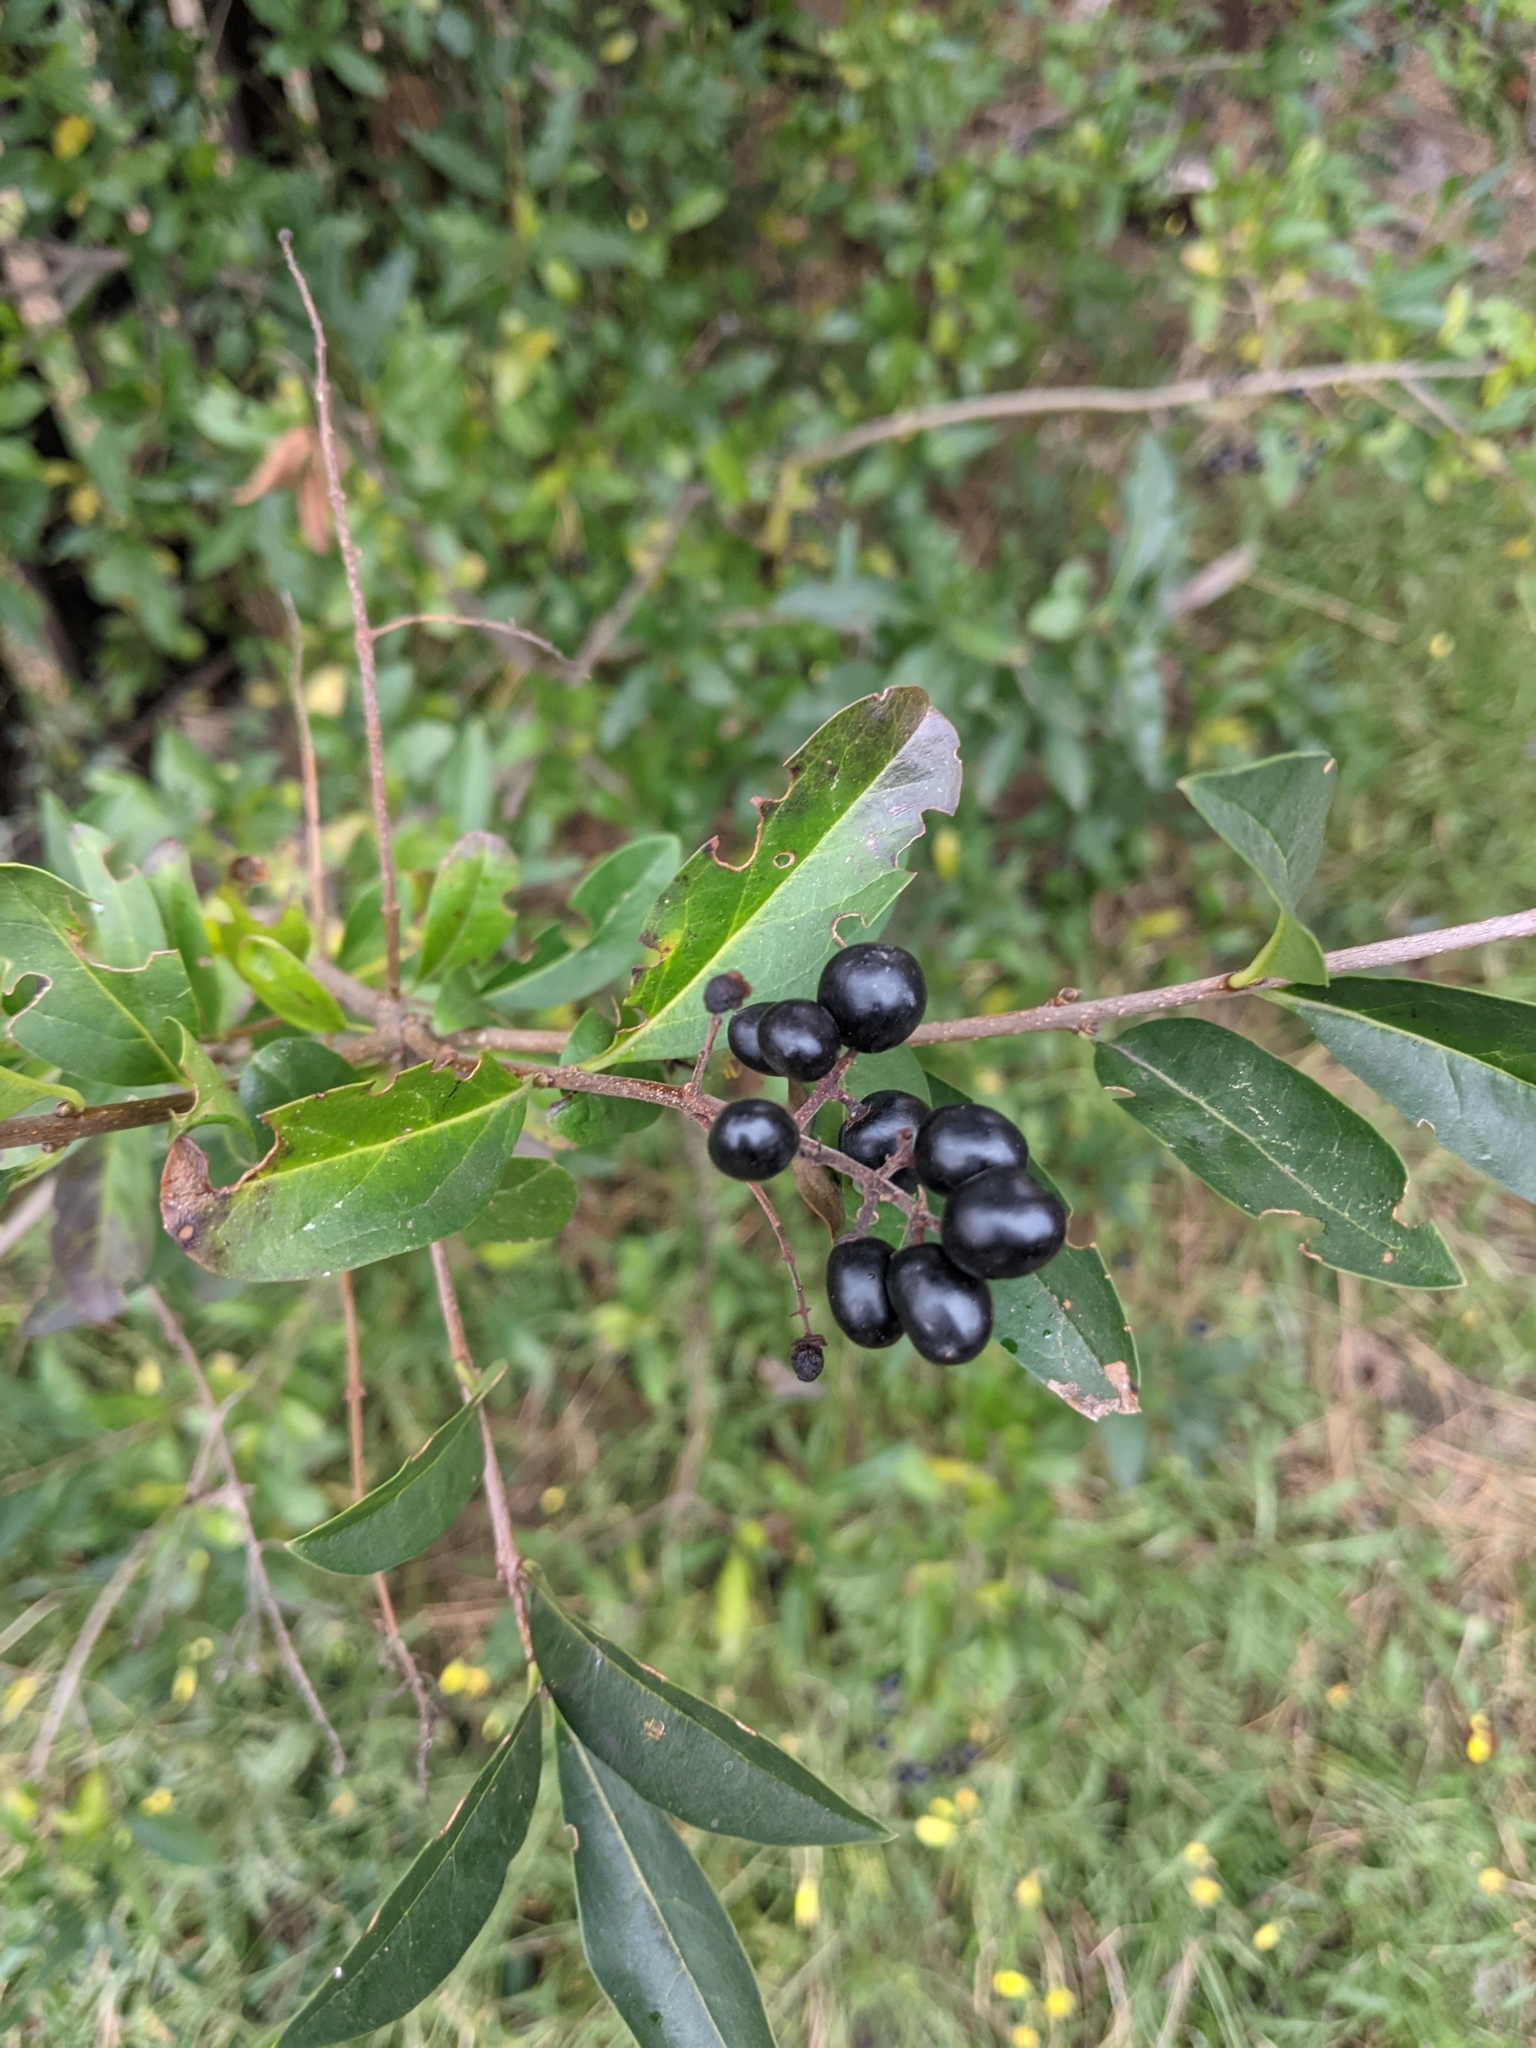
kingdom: Plantae
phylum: Tracheophyta
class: Magnoliopsida
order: Lamiales
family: Oleaceae
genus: Ligustrum
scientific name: Ligustrum vulgare
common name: Wild privet
